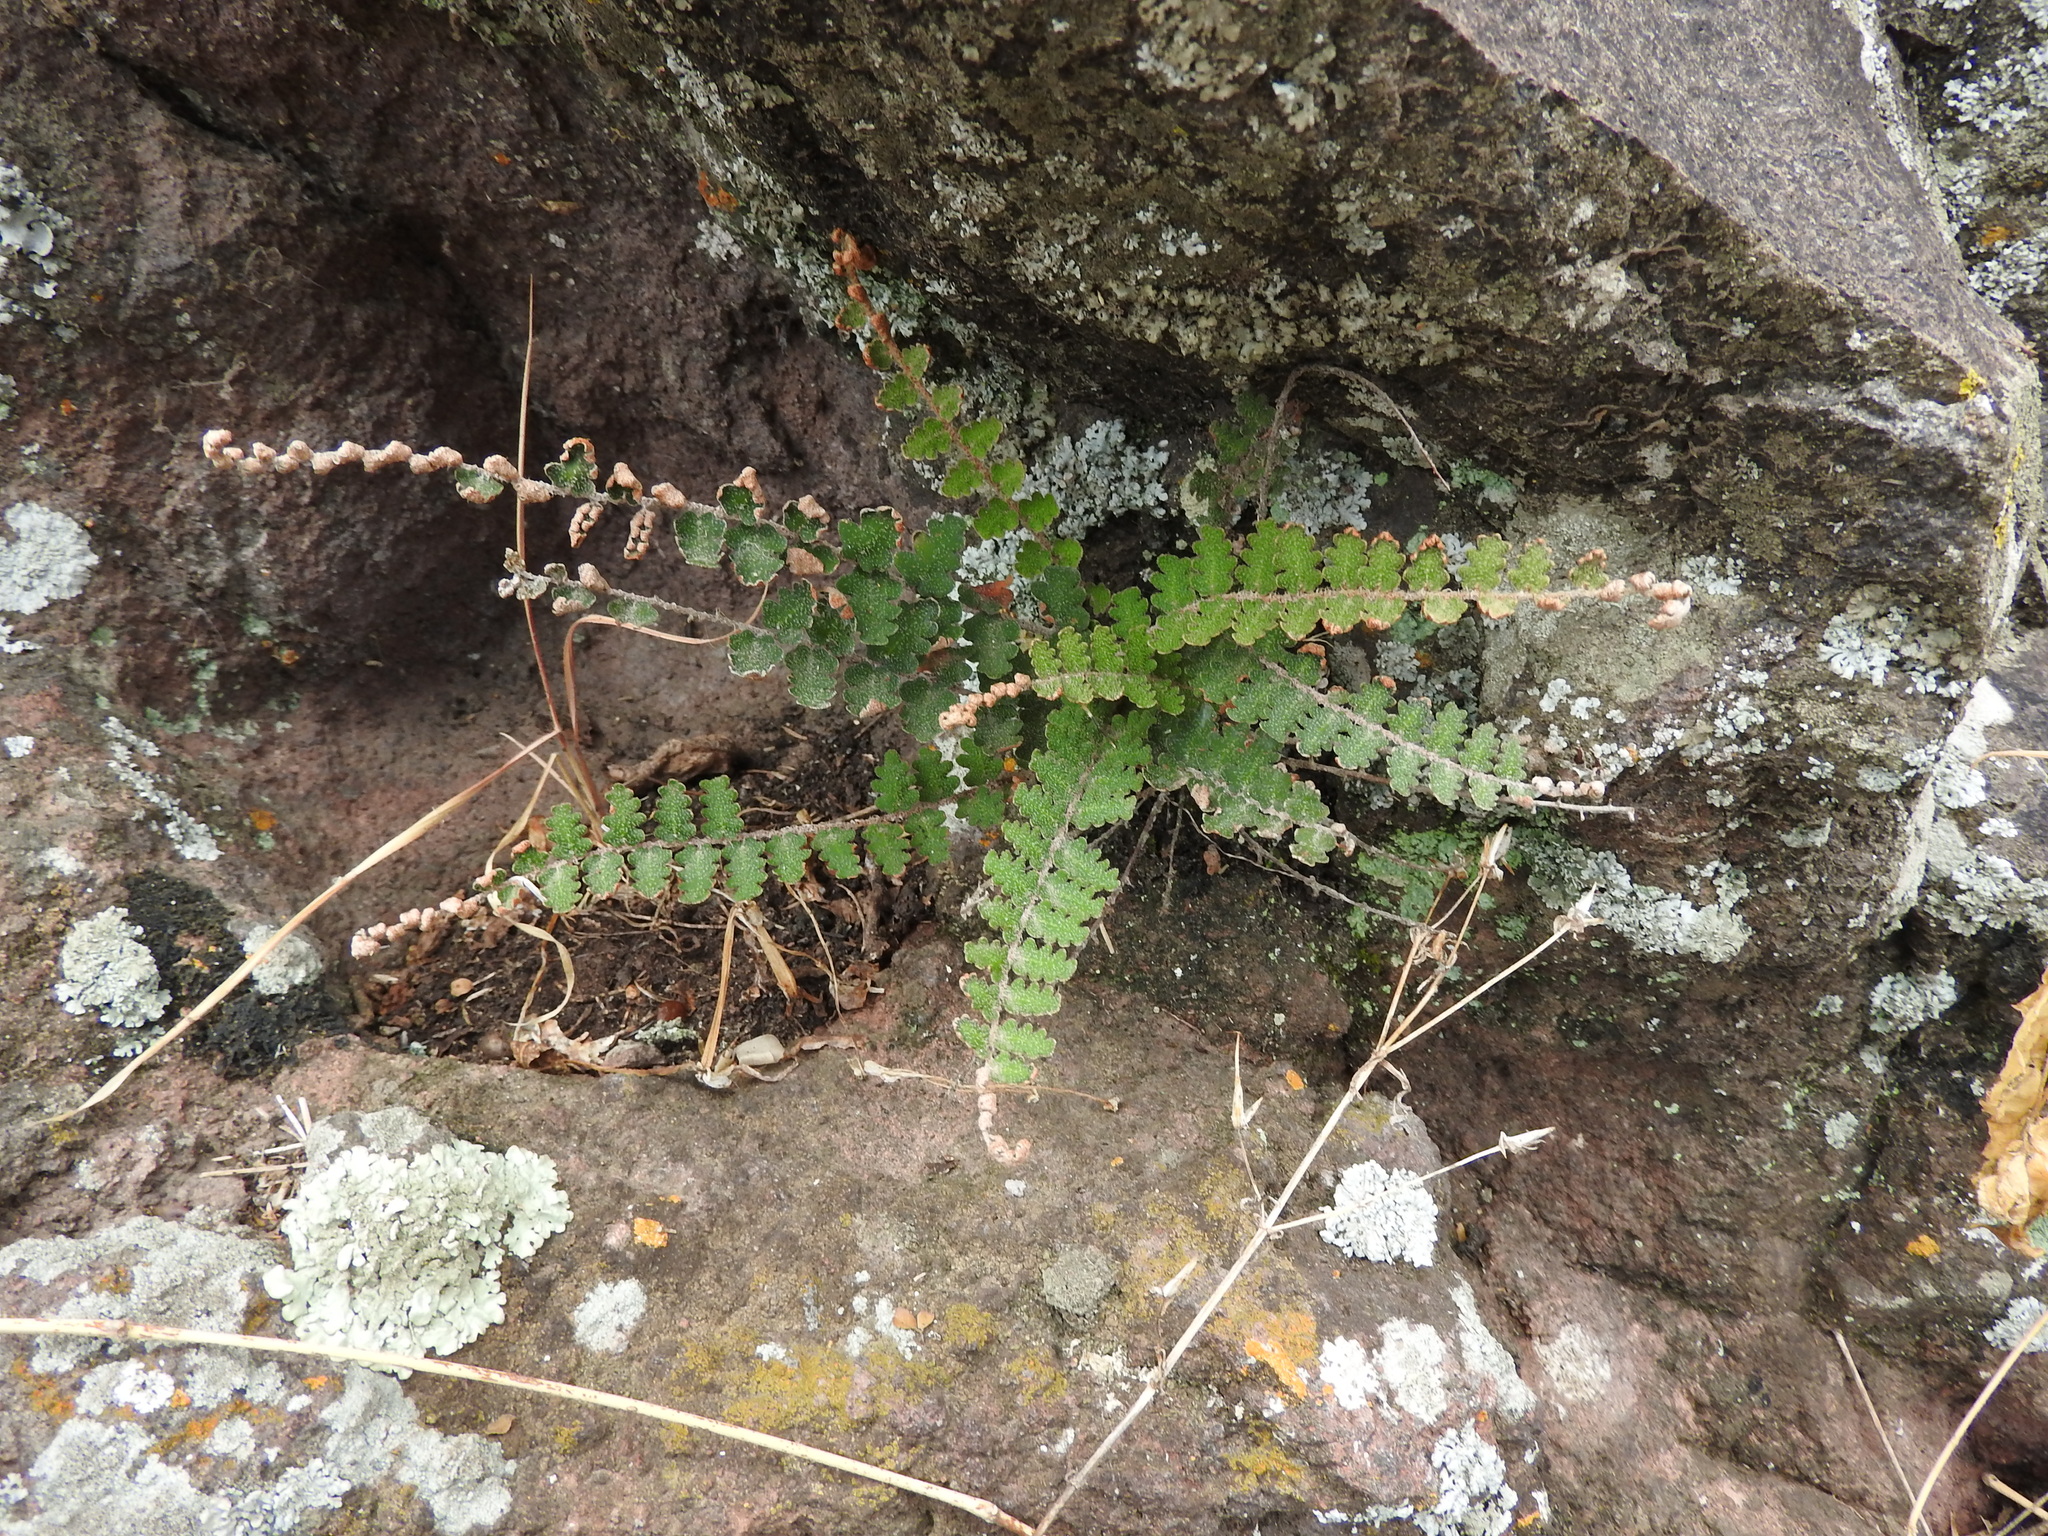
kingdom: Plantae
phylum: Tracheophyta
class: Polypodiopsida
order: Polypodiales
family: Pteridaceae
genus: Astrolepis
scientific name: Astrolepis sinuata
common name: Wavy scaly cloakfern
